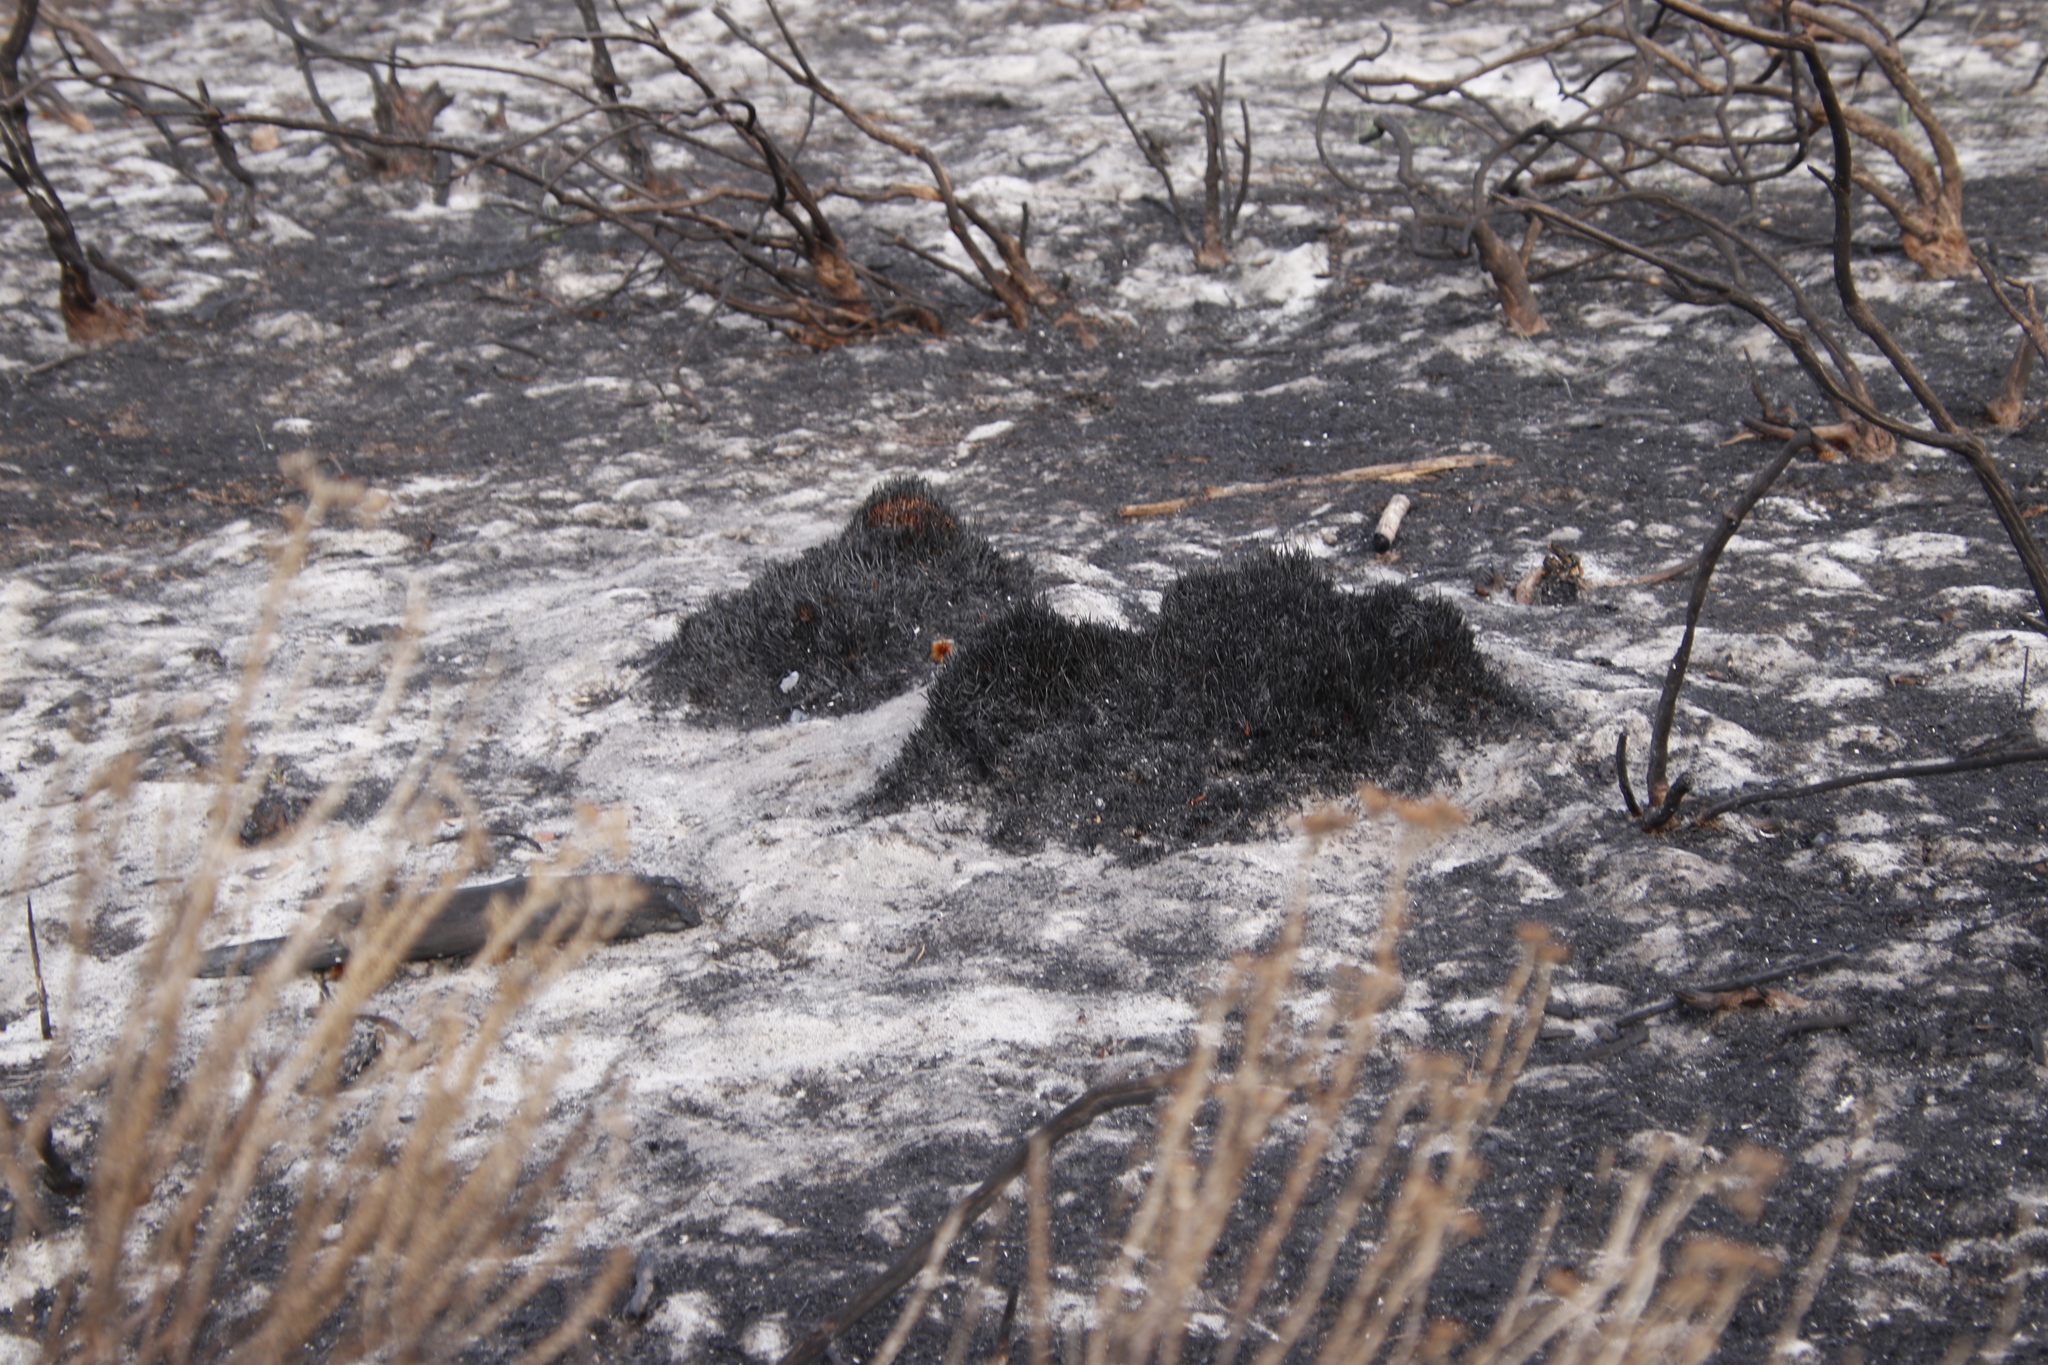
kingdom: Plantae
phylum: Tracheophyta
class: Liliopsida
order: Poales
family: Restionaceae
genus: Staberoha
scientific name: Staberoha distachyos
